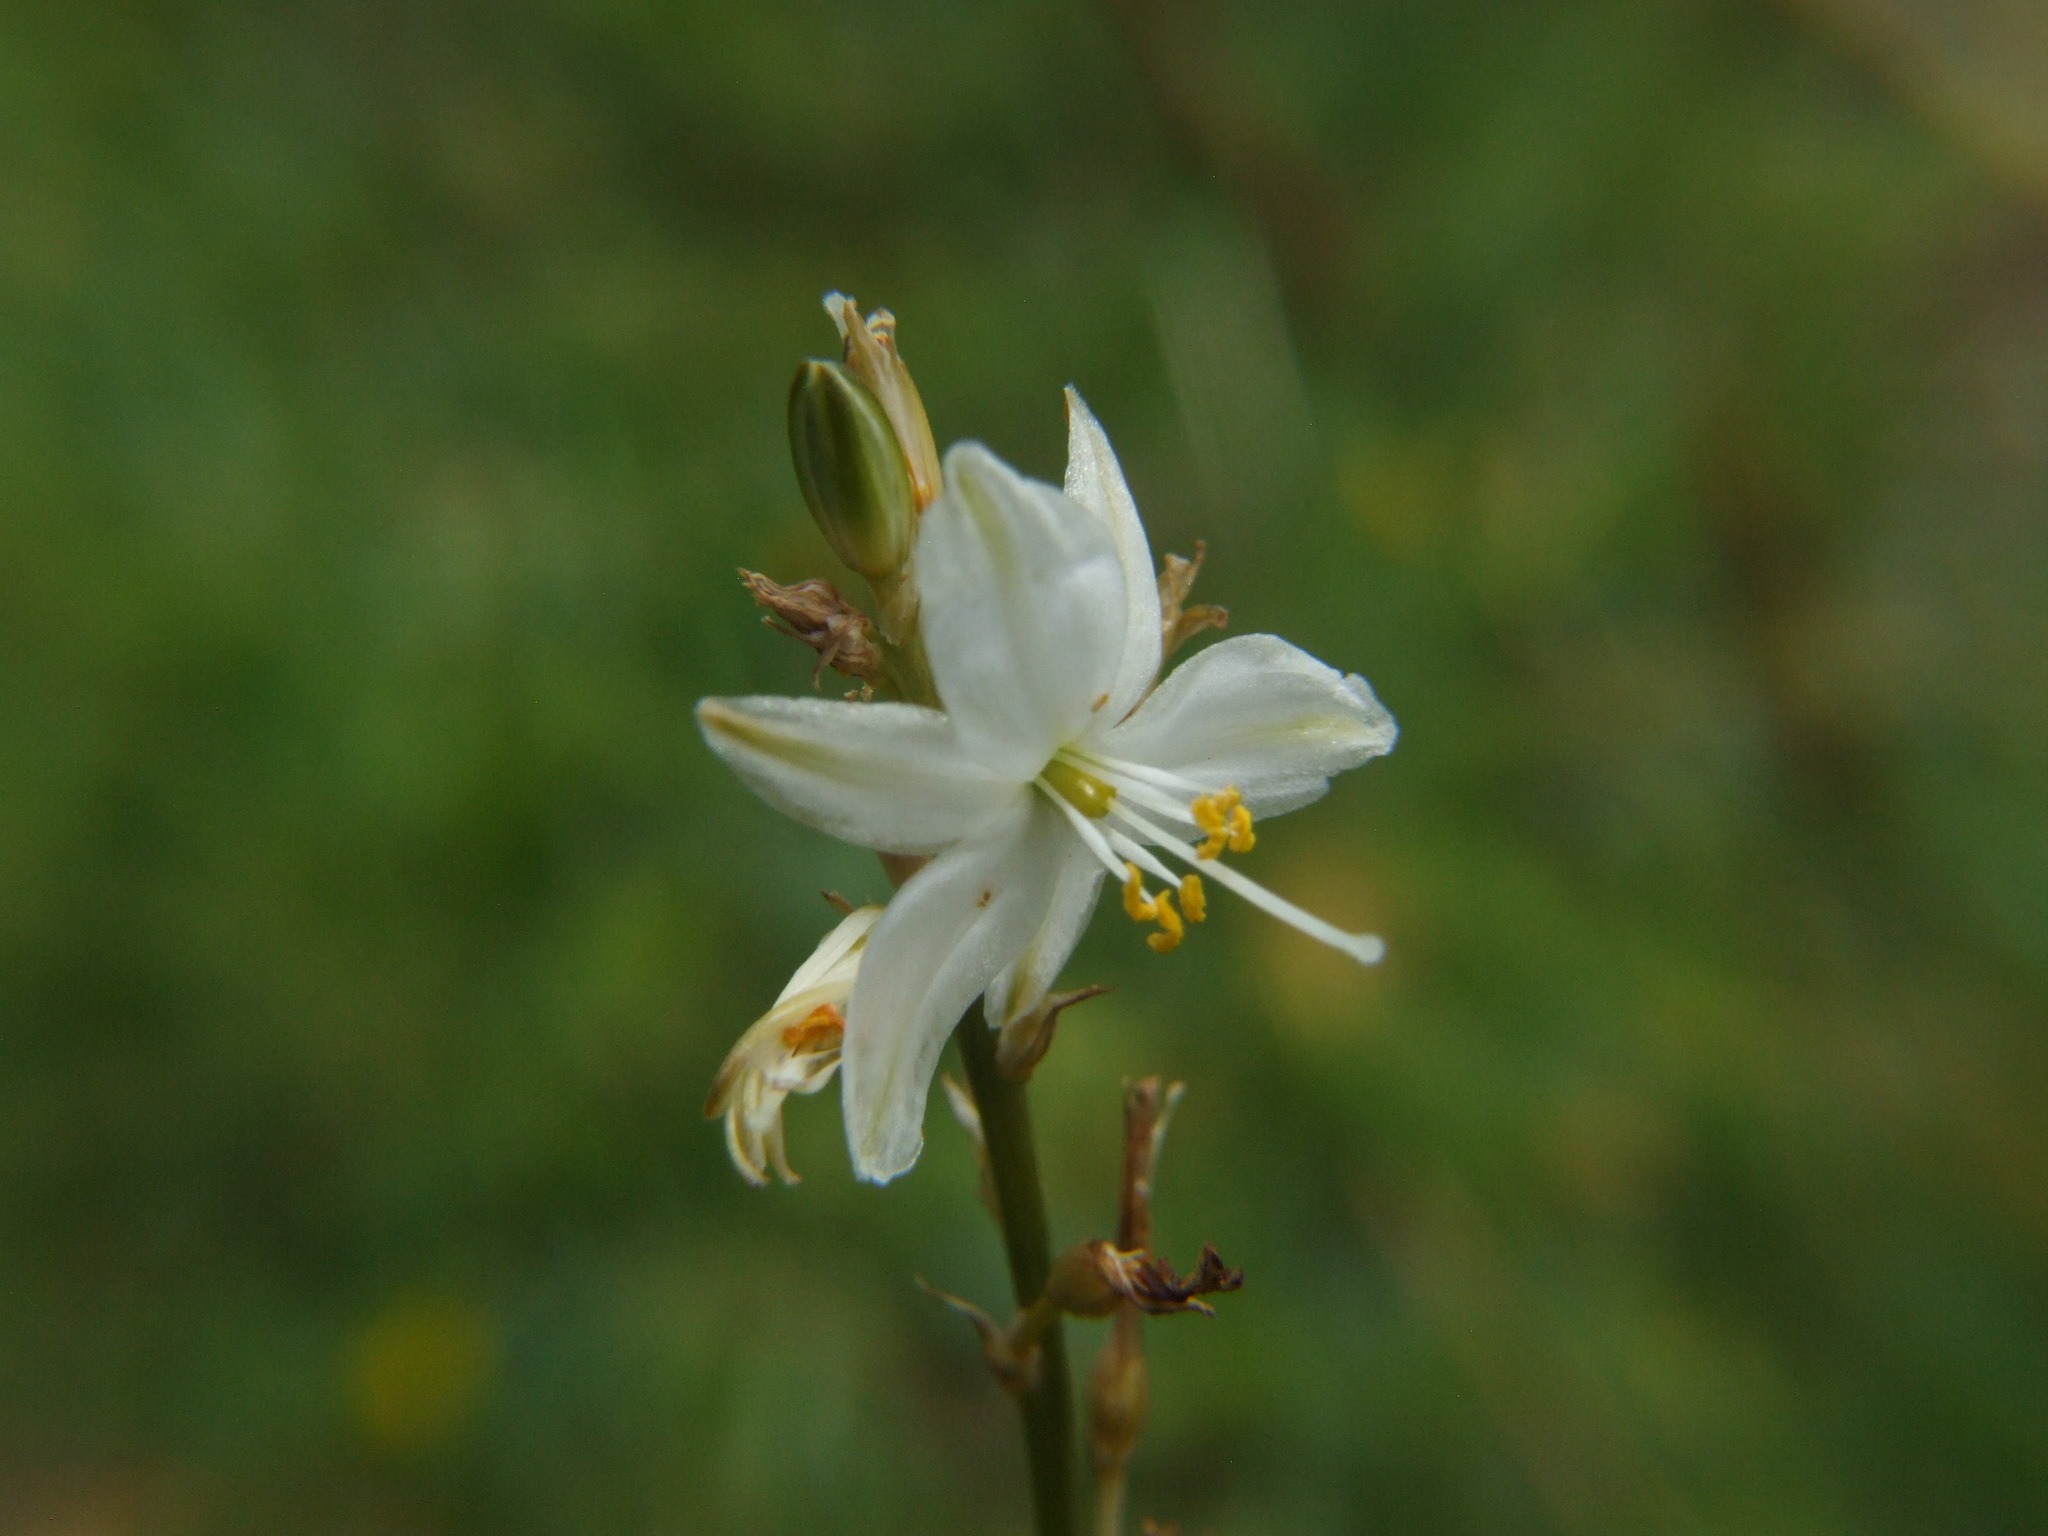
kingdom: Plantae
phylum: Tracheophyta
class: Liliopsida
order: Asparagales
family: Asparagaceae
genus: Trihesperus
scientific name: Trihesperus glaucus
